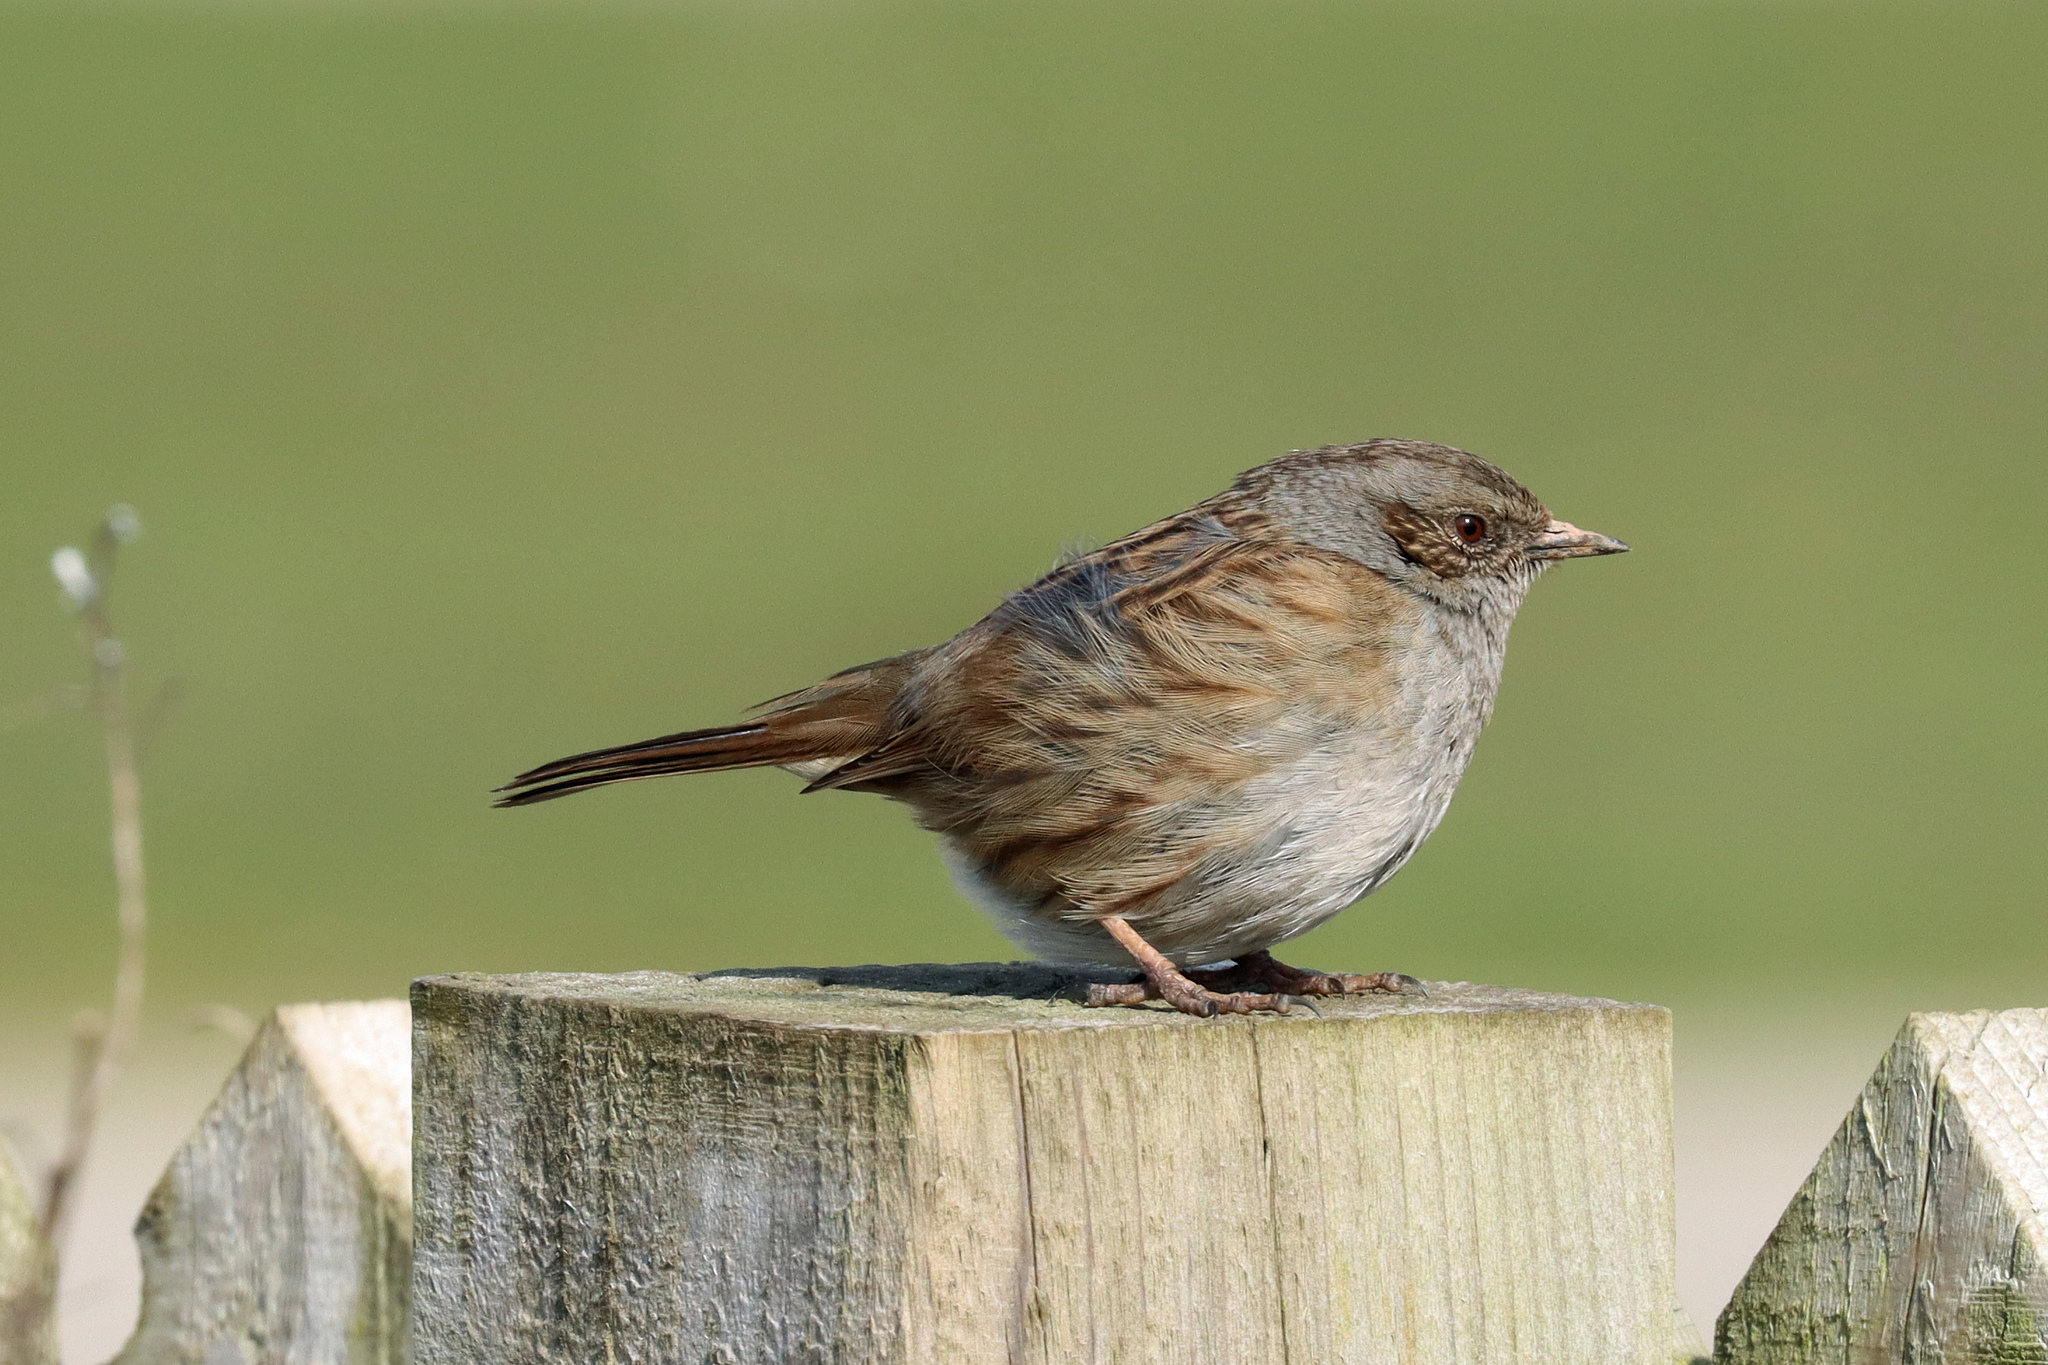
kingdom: Animalia
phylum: Chordata
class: Aves
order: Passeriformes
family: Prunellidae
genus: Prunella
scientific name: Prunella modularis
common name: Dunnock
